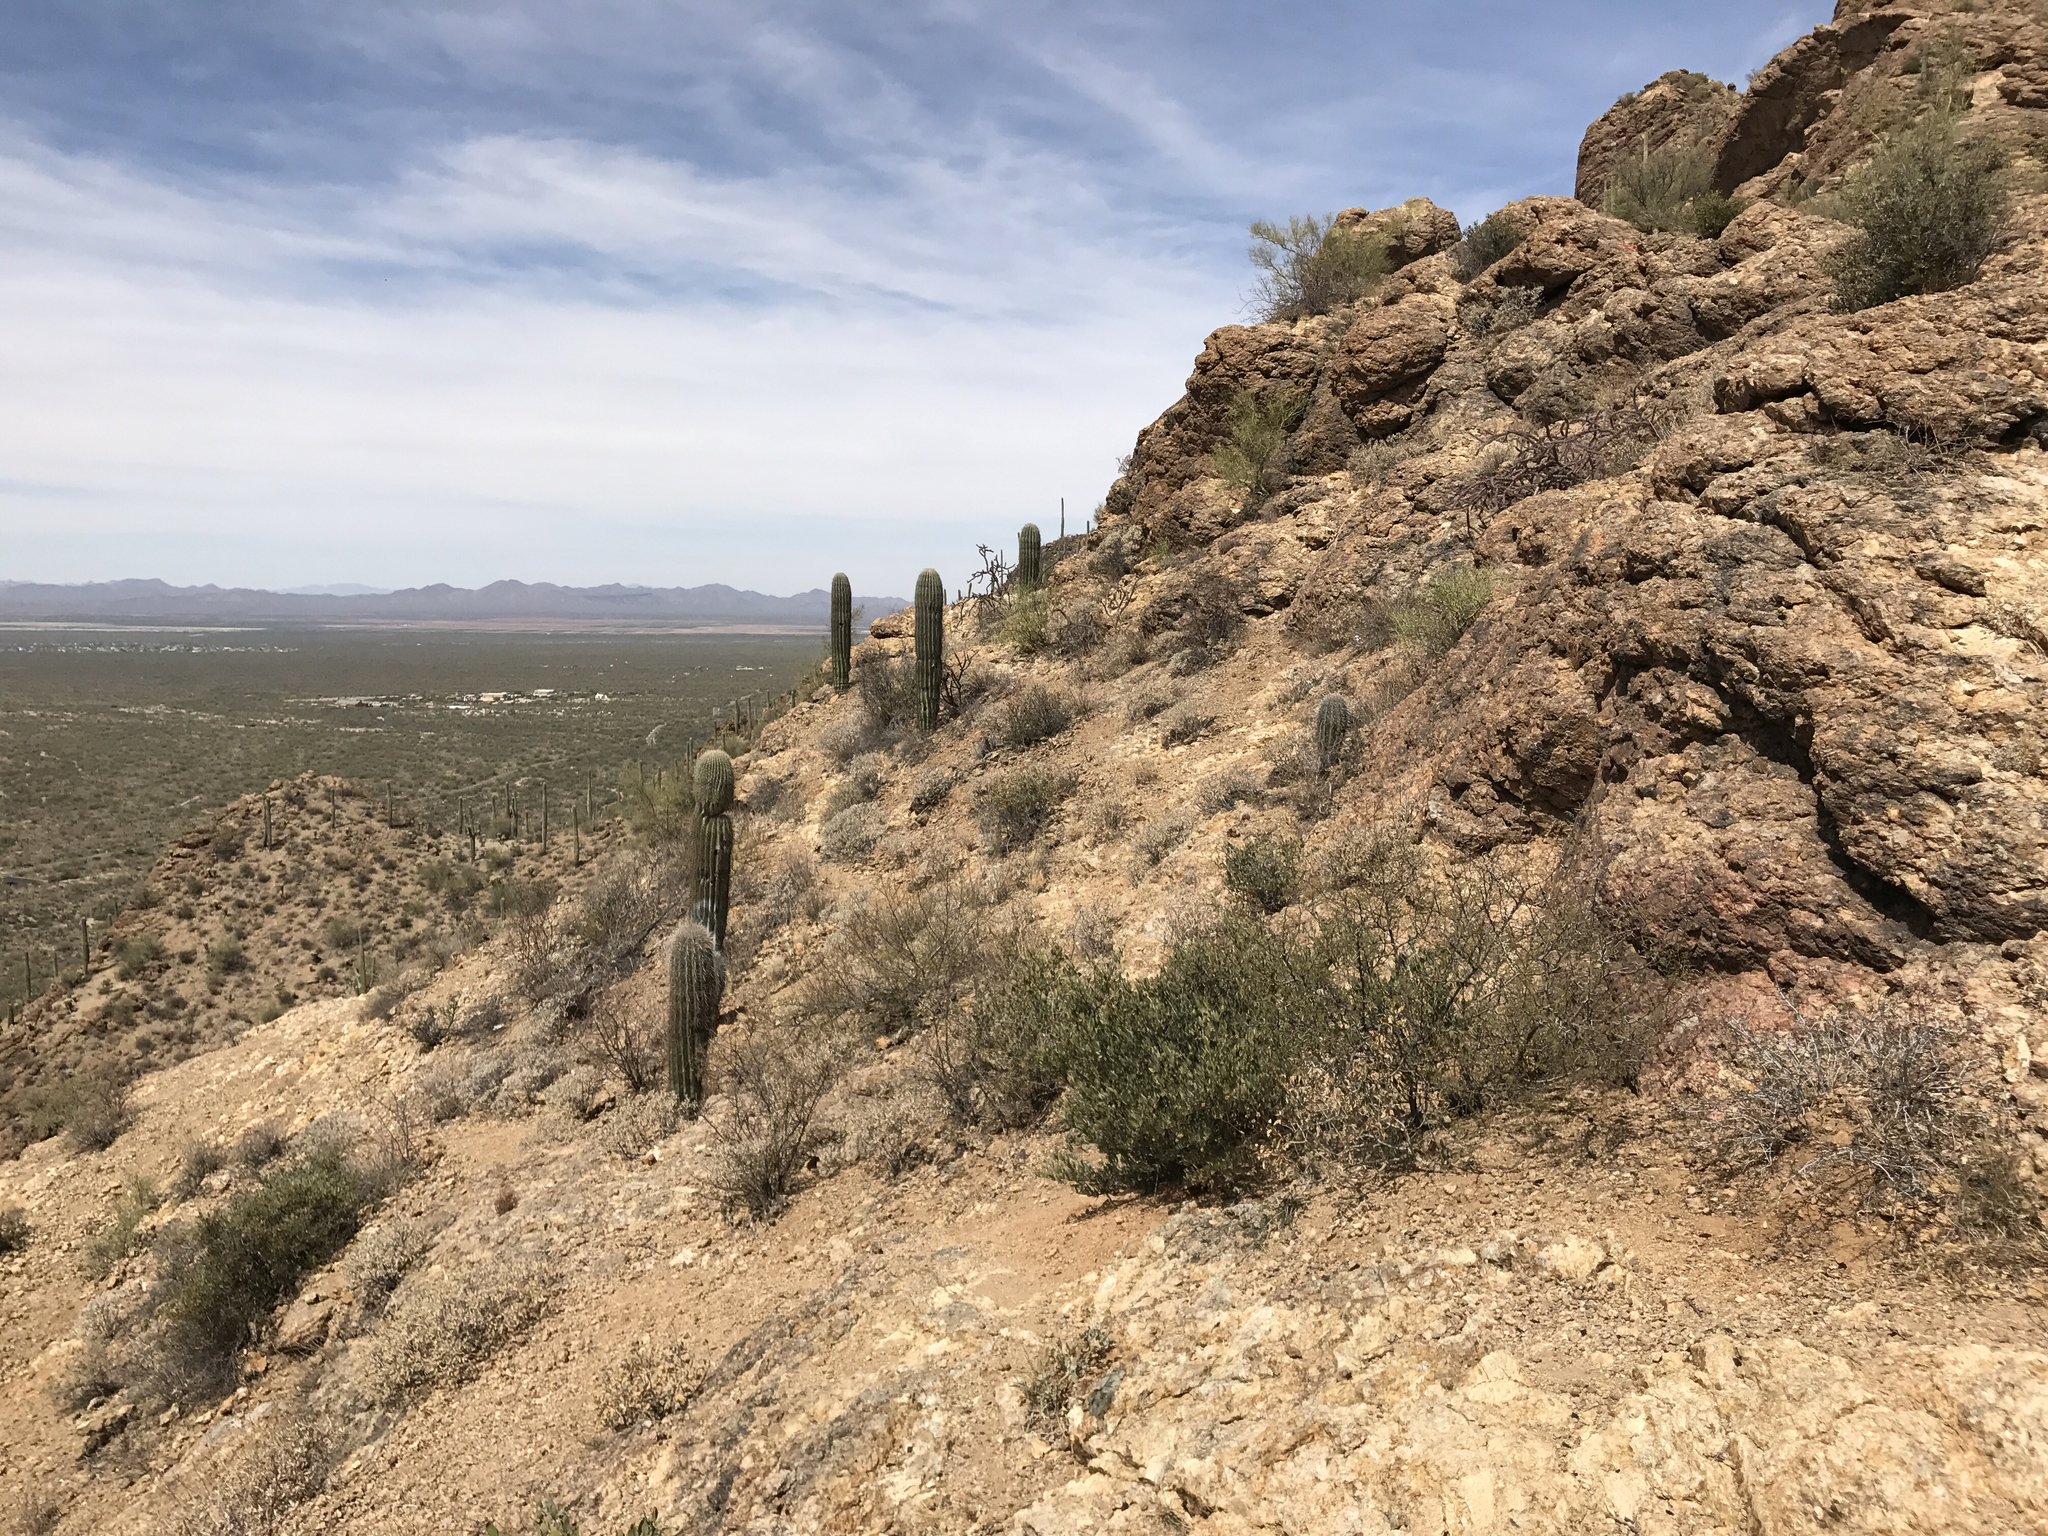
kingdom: Plantae
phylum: Tracheophyta
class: Magnoliopsida
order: Caryophyllales
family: Cactaceae
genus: Carnegiea
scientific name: Carnegiea gigantea
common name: Saguaro
